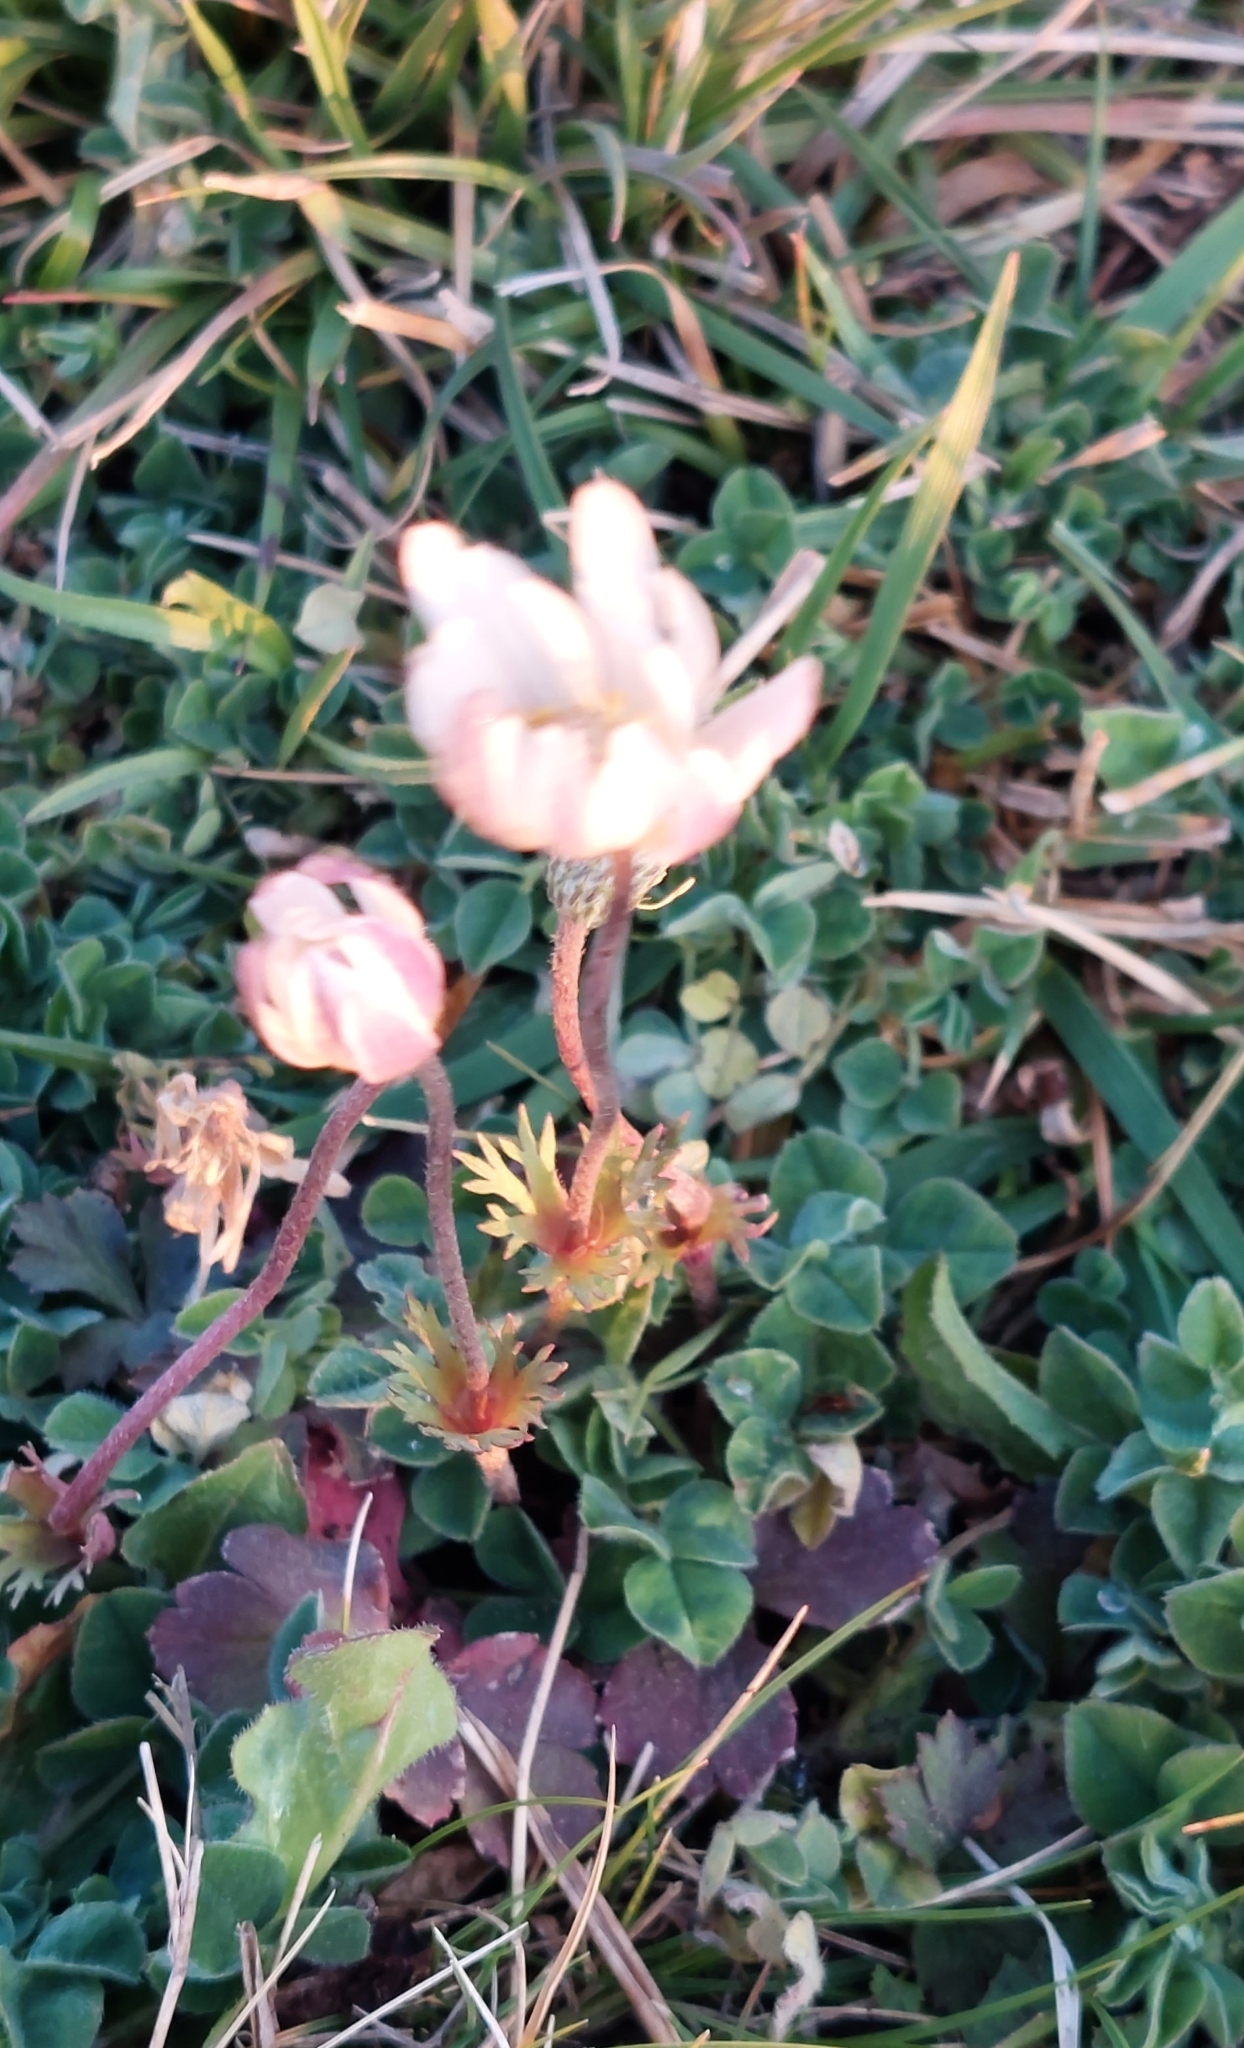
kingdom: Plantae
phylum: Tracheophyta
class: Magnoliopsida
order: Ranunculales
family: Ranunculaceae
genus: Anemone
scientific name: Anemone decapetala
